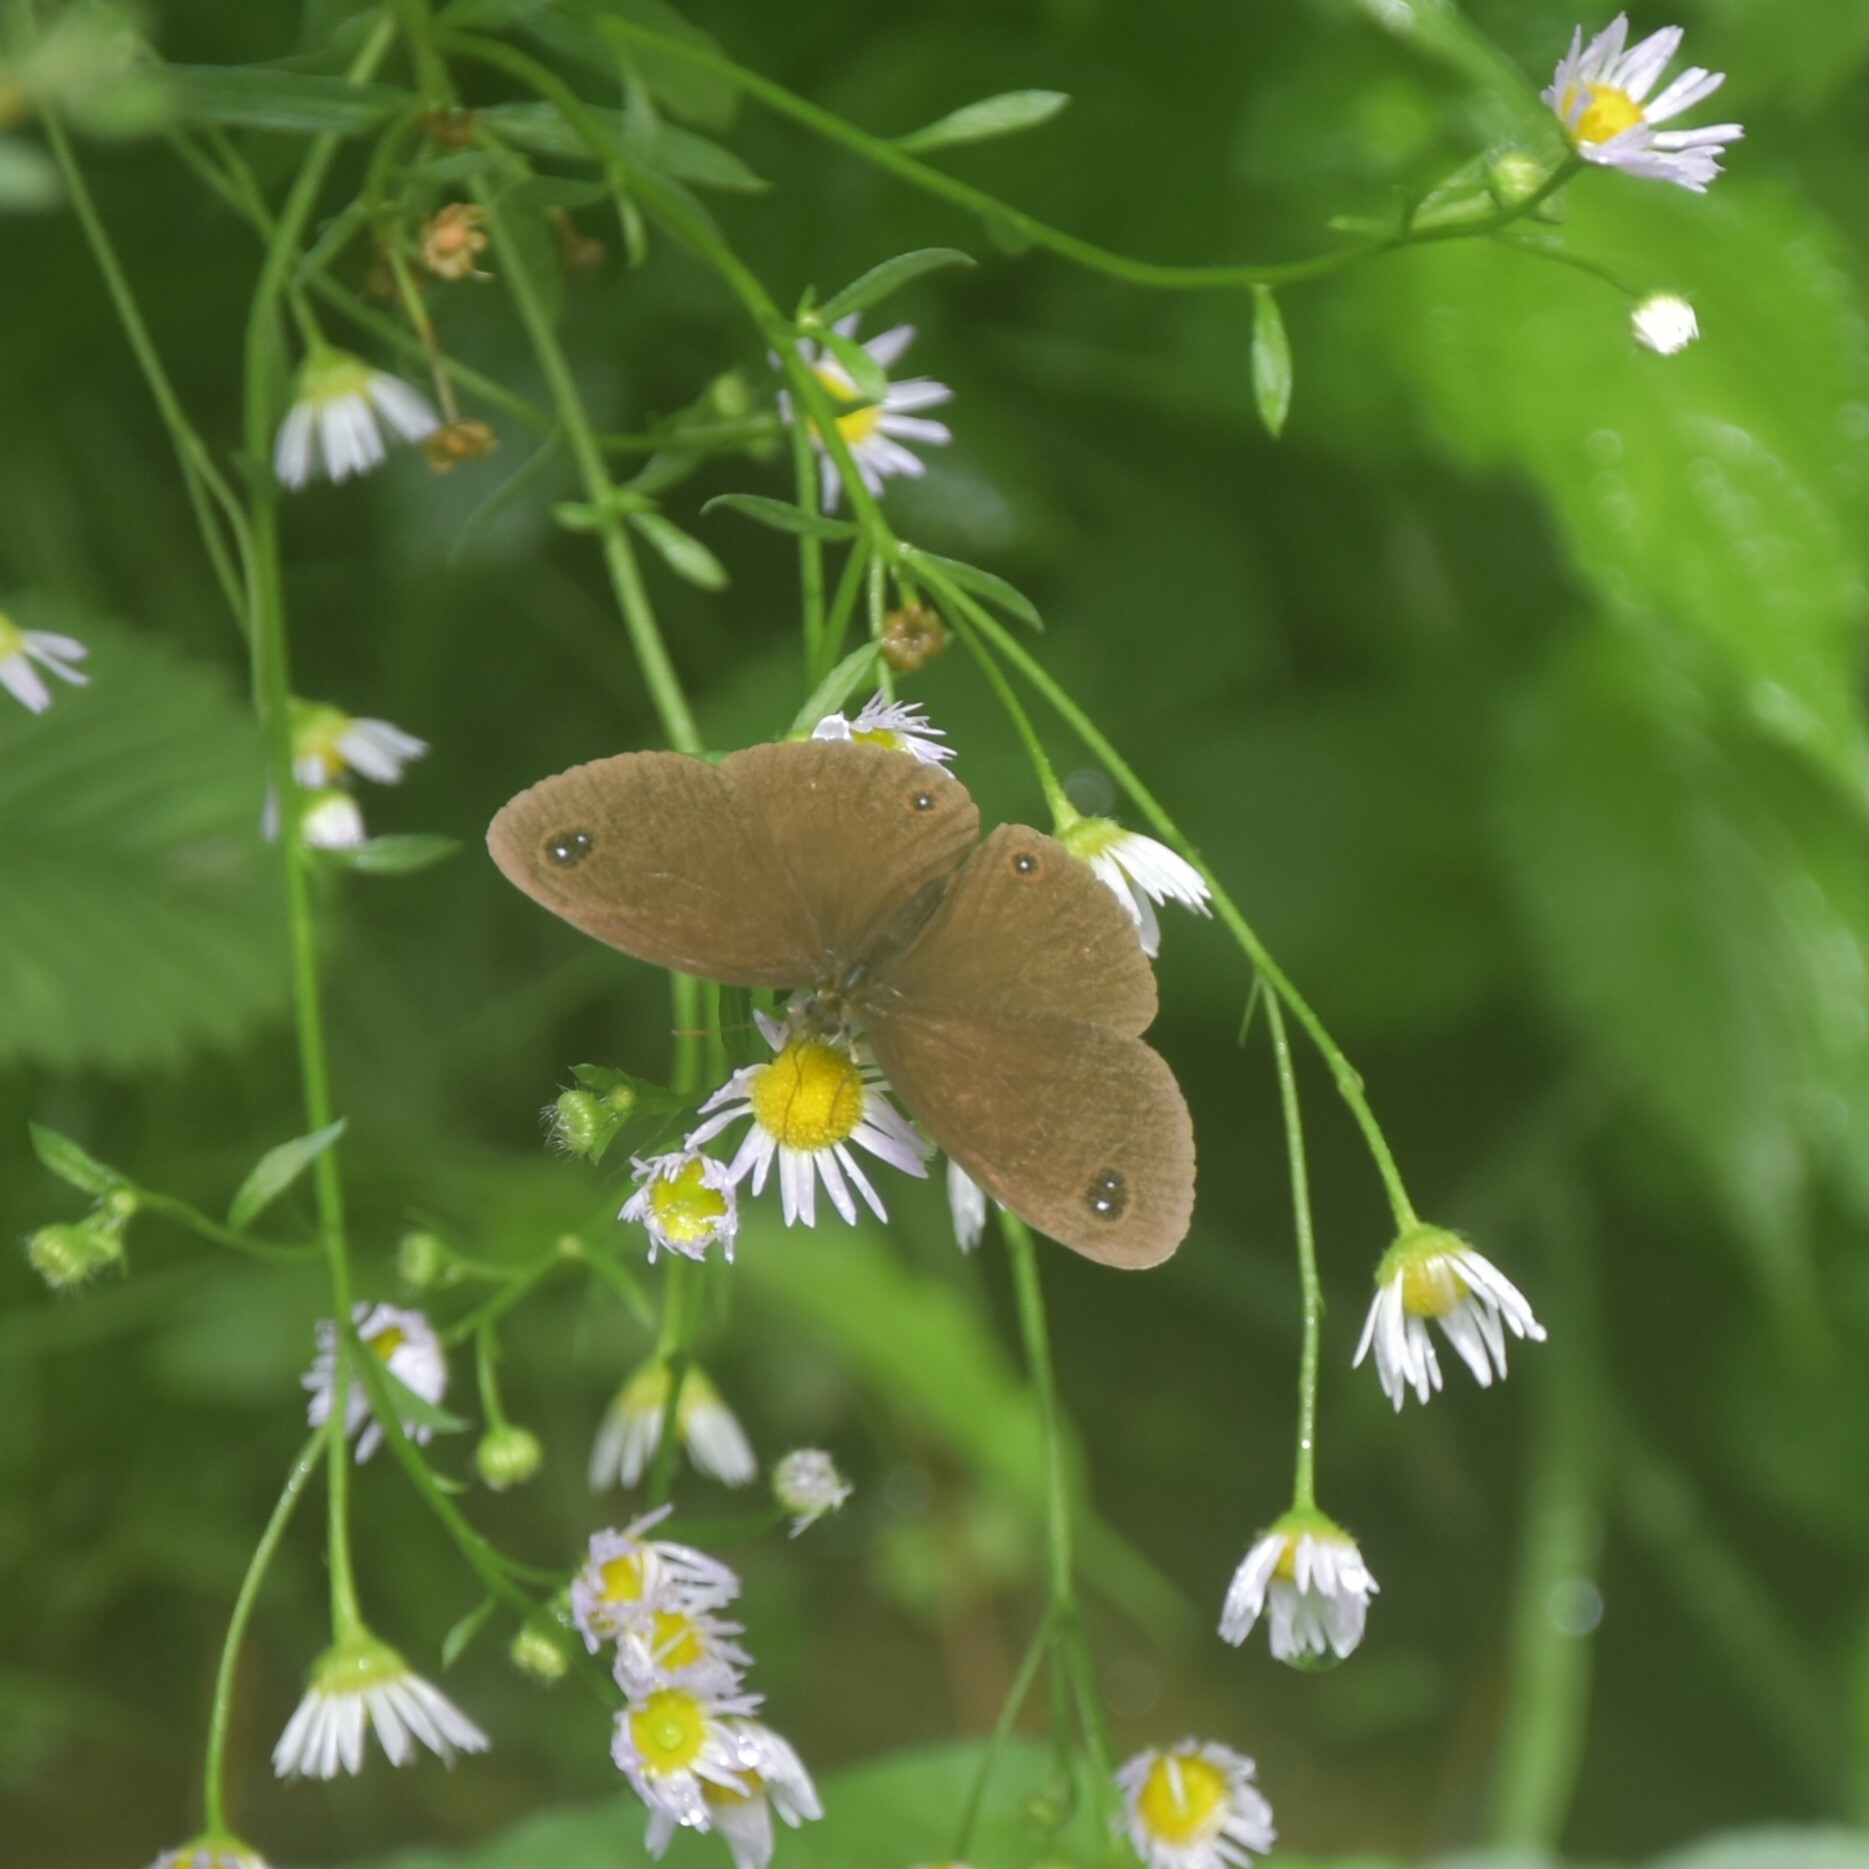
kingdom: Animalia
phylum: Arthropoda
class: Insecta
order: Lepidoptera
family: Nymphalidae
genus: Callerebia
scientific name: Callerebia nirmala
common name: Common argus
